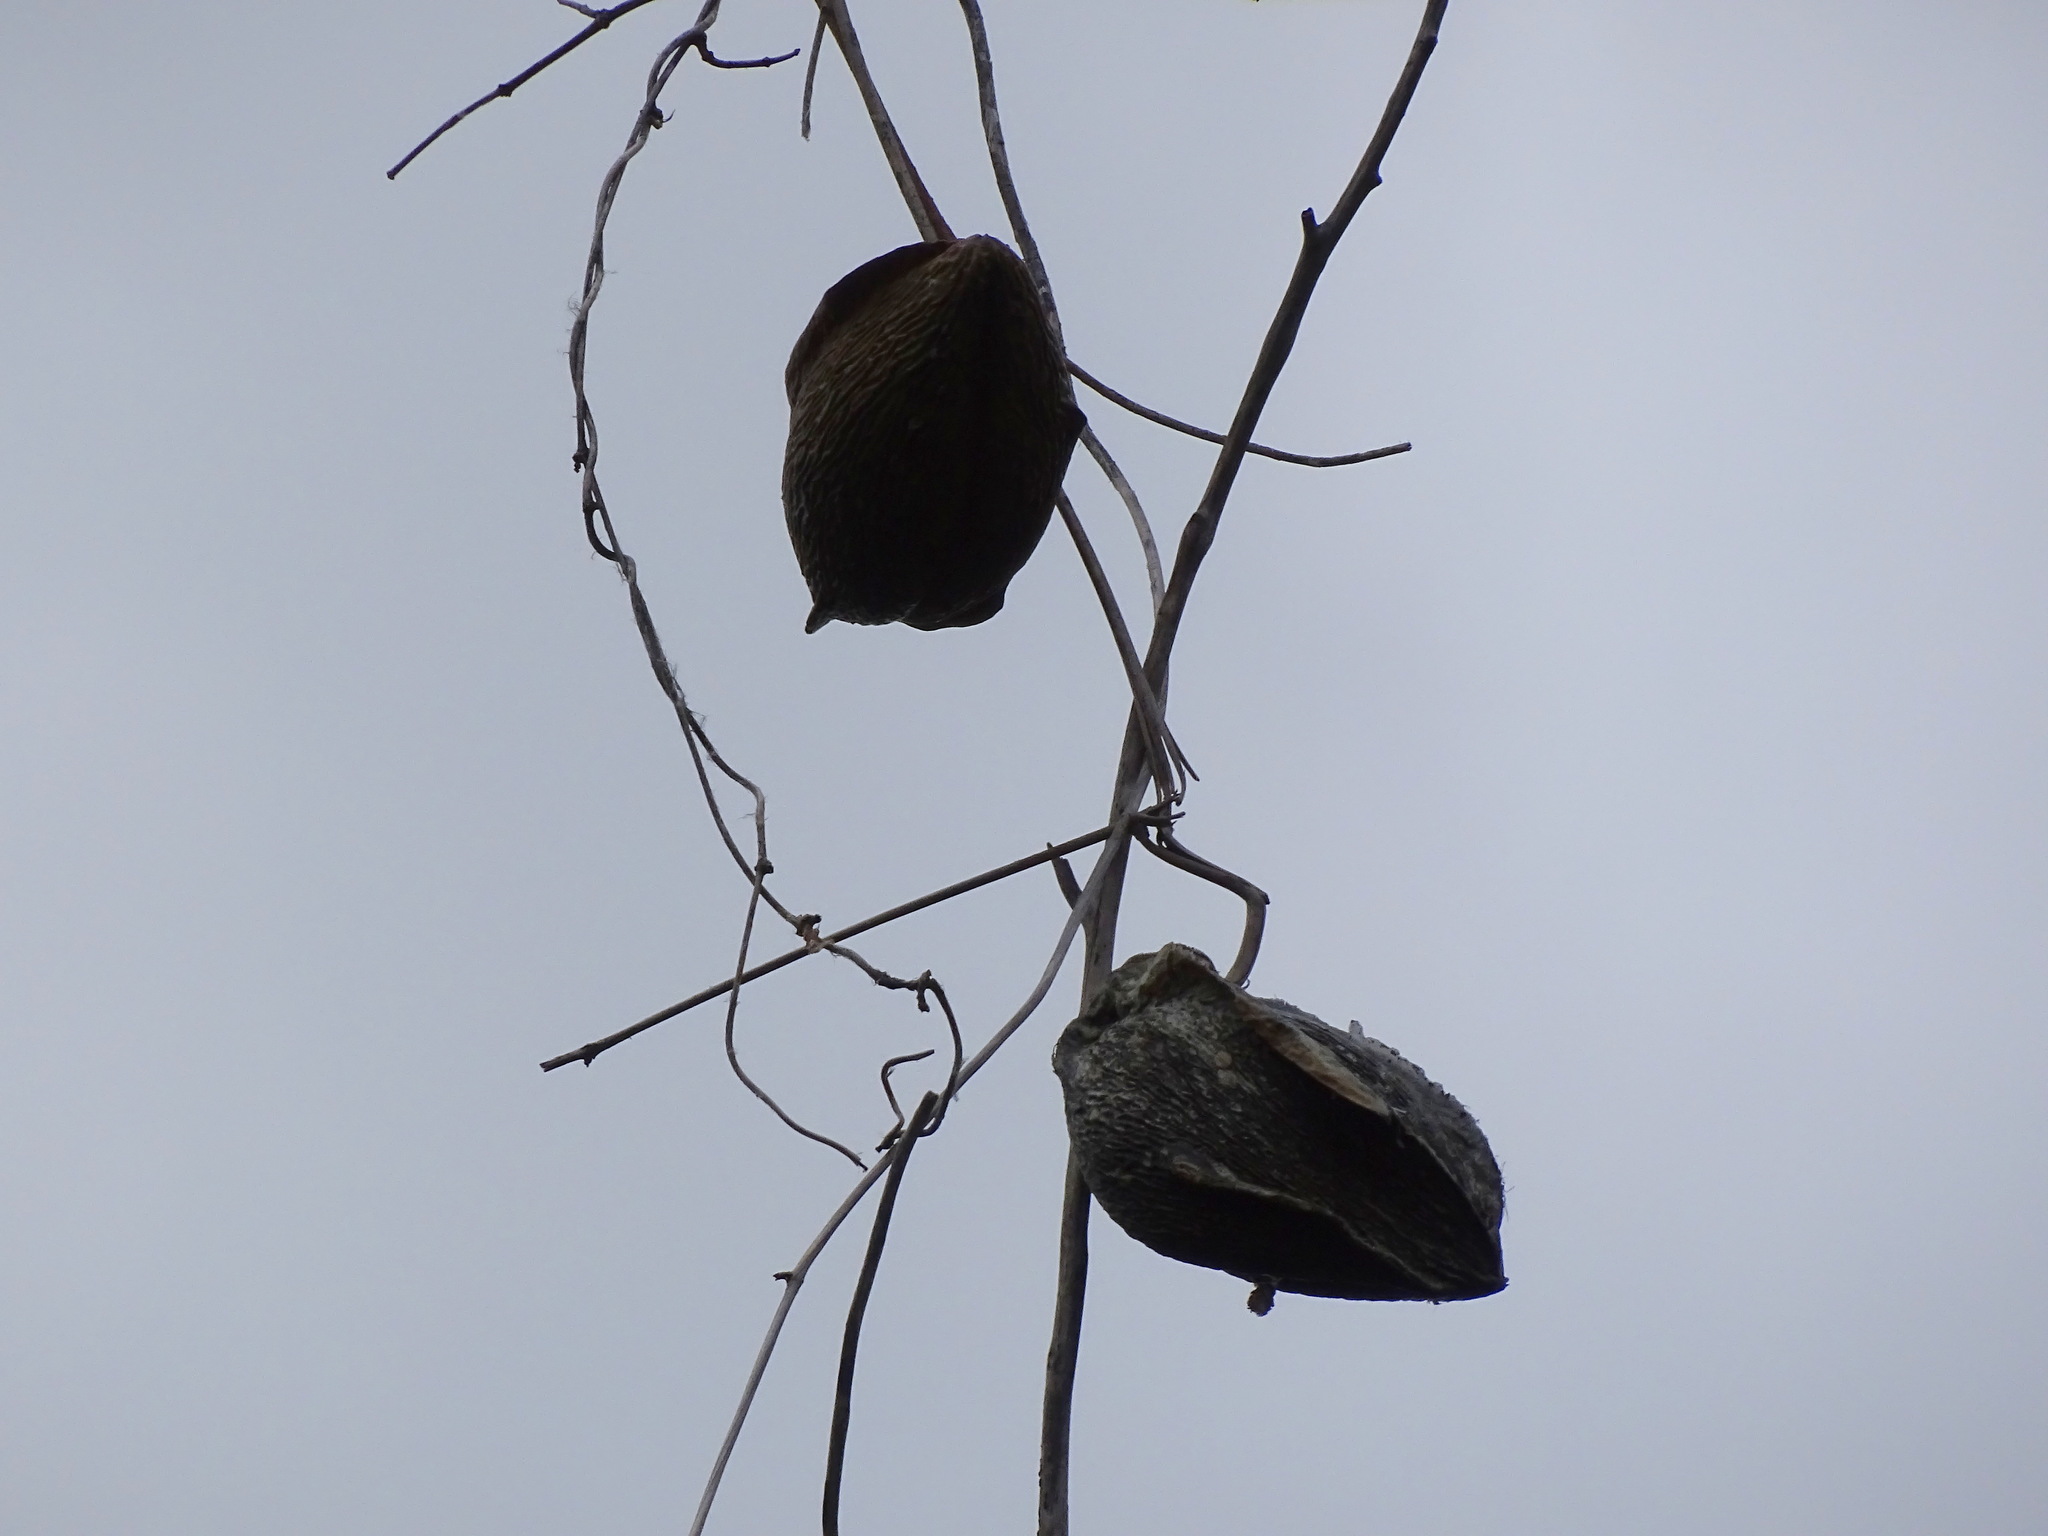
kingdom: Plantae
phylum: Tracheophyta
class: Magnoliopsida
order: Gentianales
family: Apocynaceae
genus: Gonolobus
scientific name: Gonolobus fraternus
